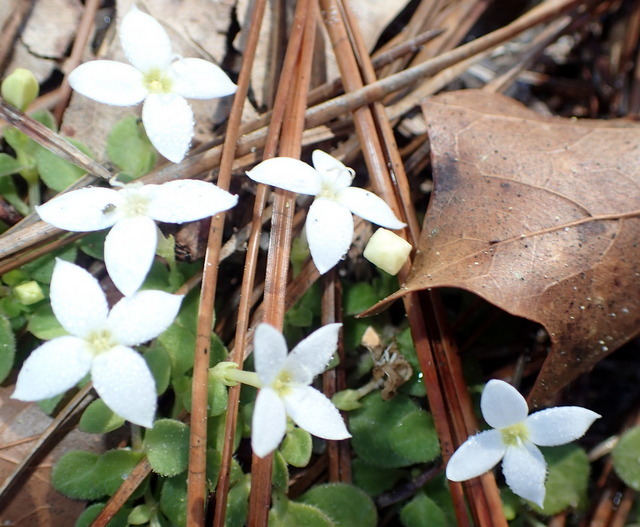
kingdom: Plantae
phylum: Tracheophyta
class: Magnoliopsida
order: Gentianales
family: Rubiaceae
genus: Houstonia
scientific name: Houstonia procumbens
